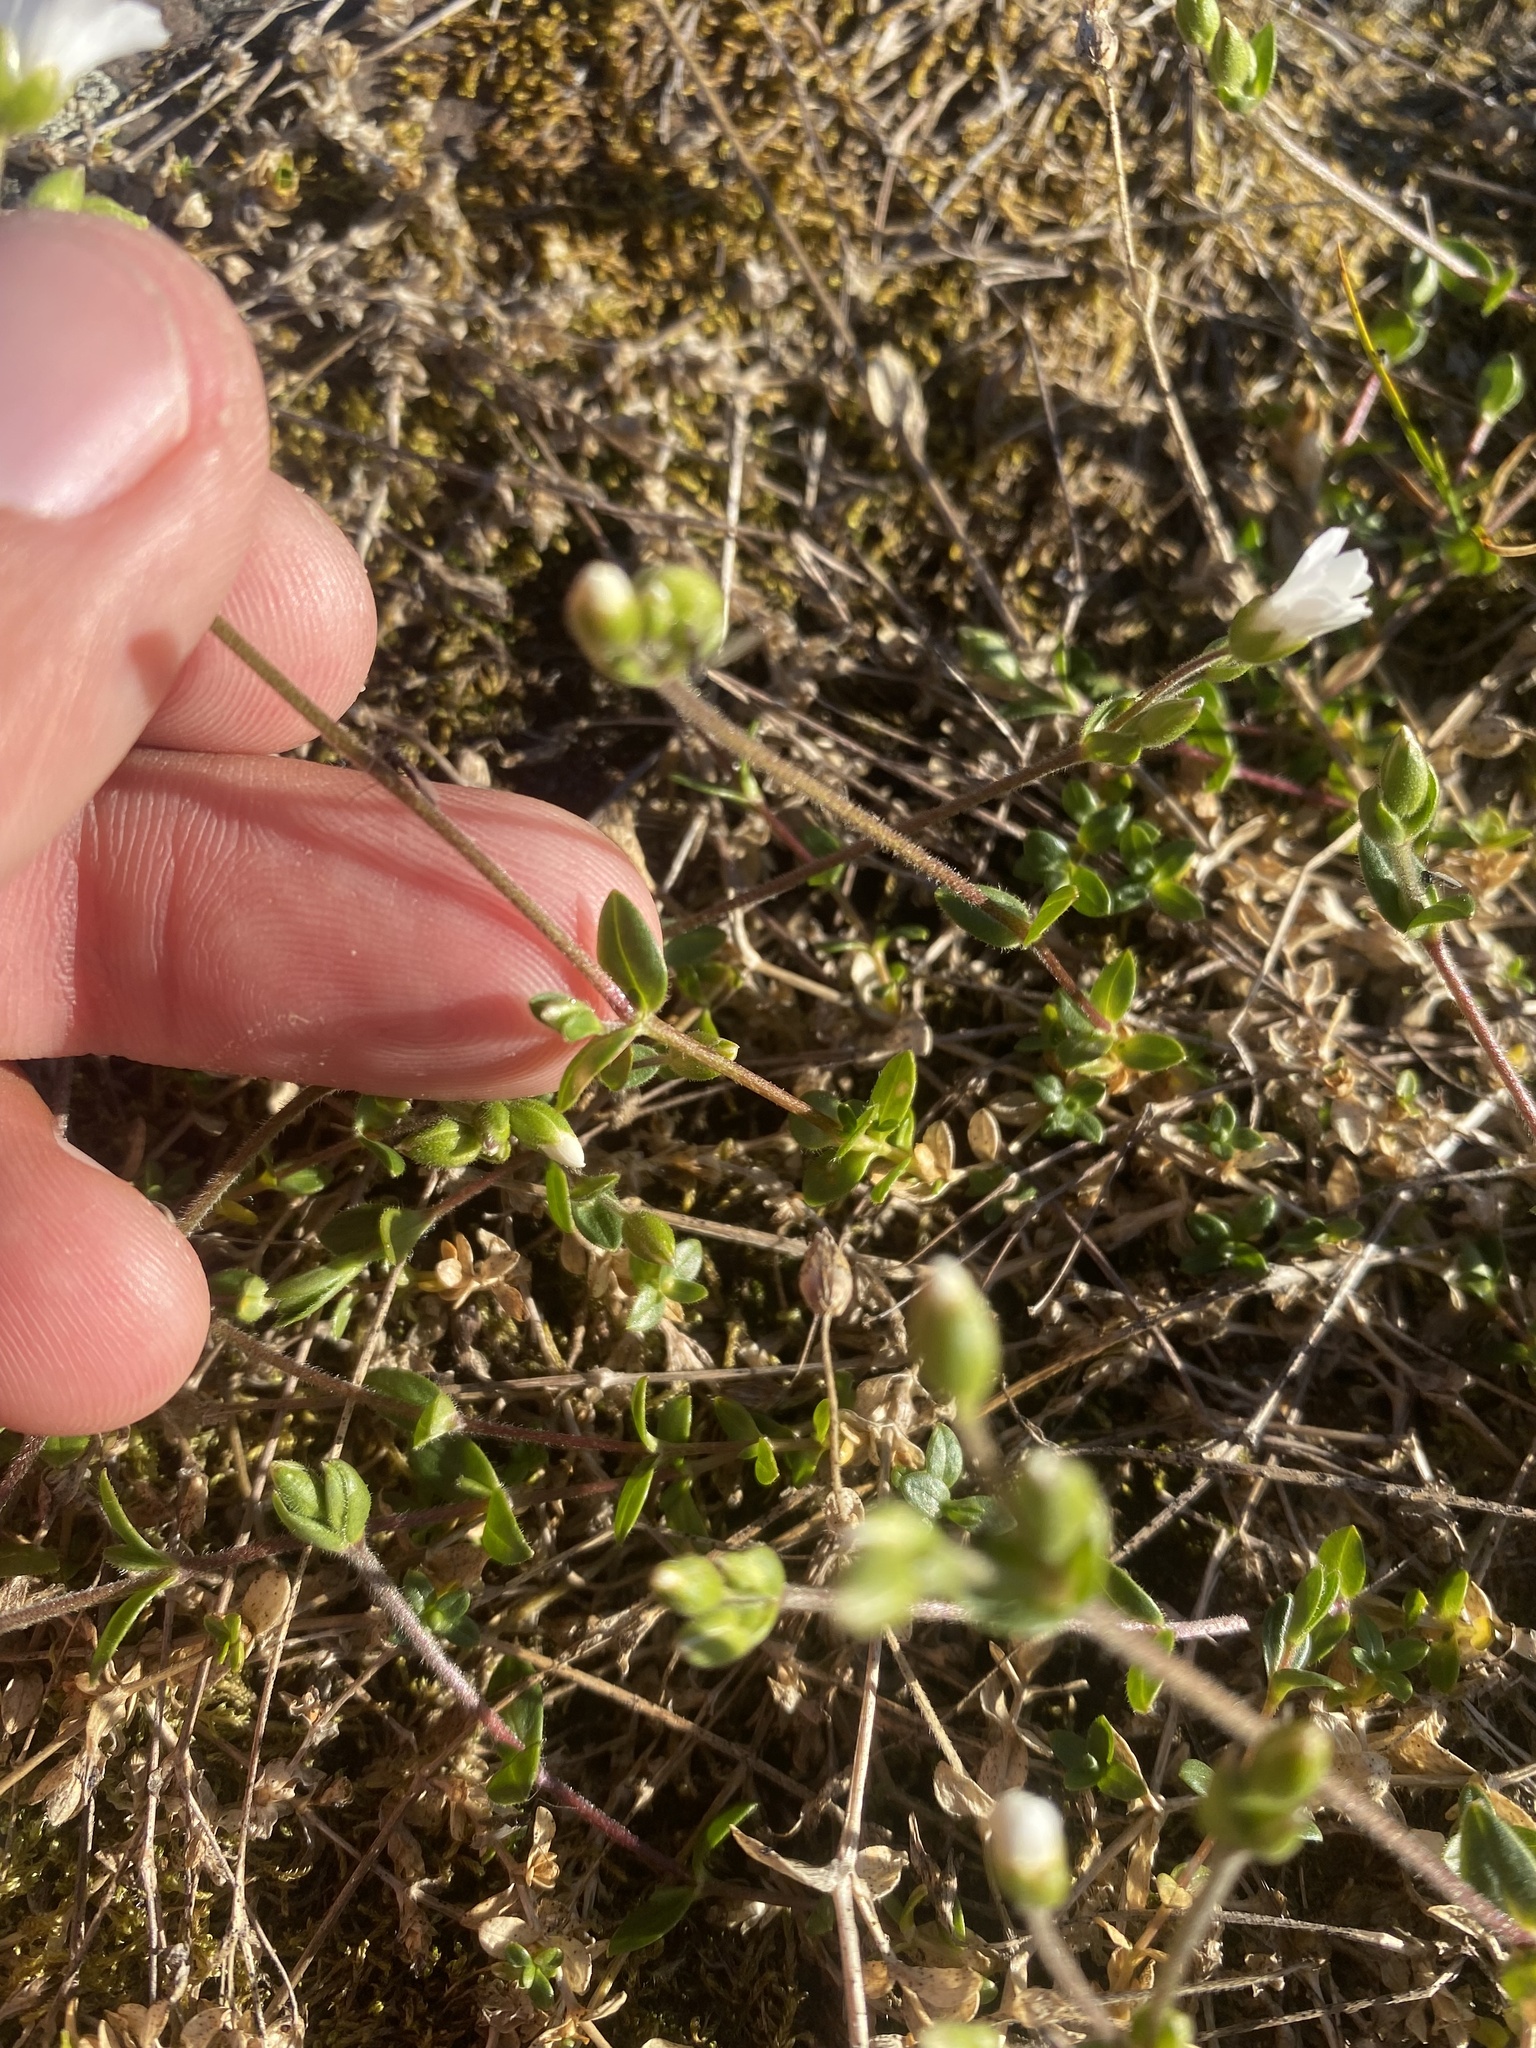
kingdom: Plantae
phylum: Tracheophyta
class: Magnoliopsida
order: Caryophyllales
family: Caryophyllaceae
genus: Cerastium
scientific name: Cerastium regelii
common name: Regel's chickweed
